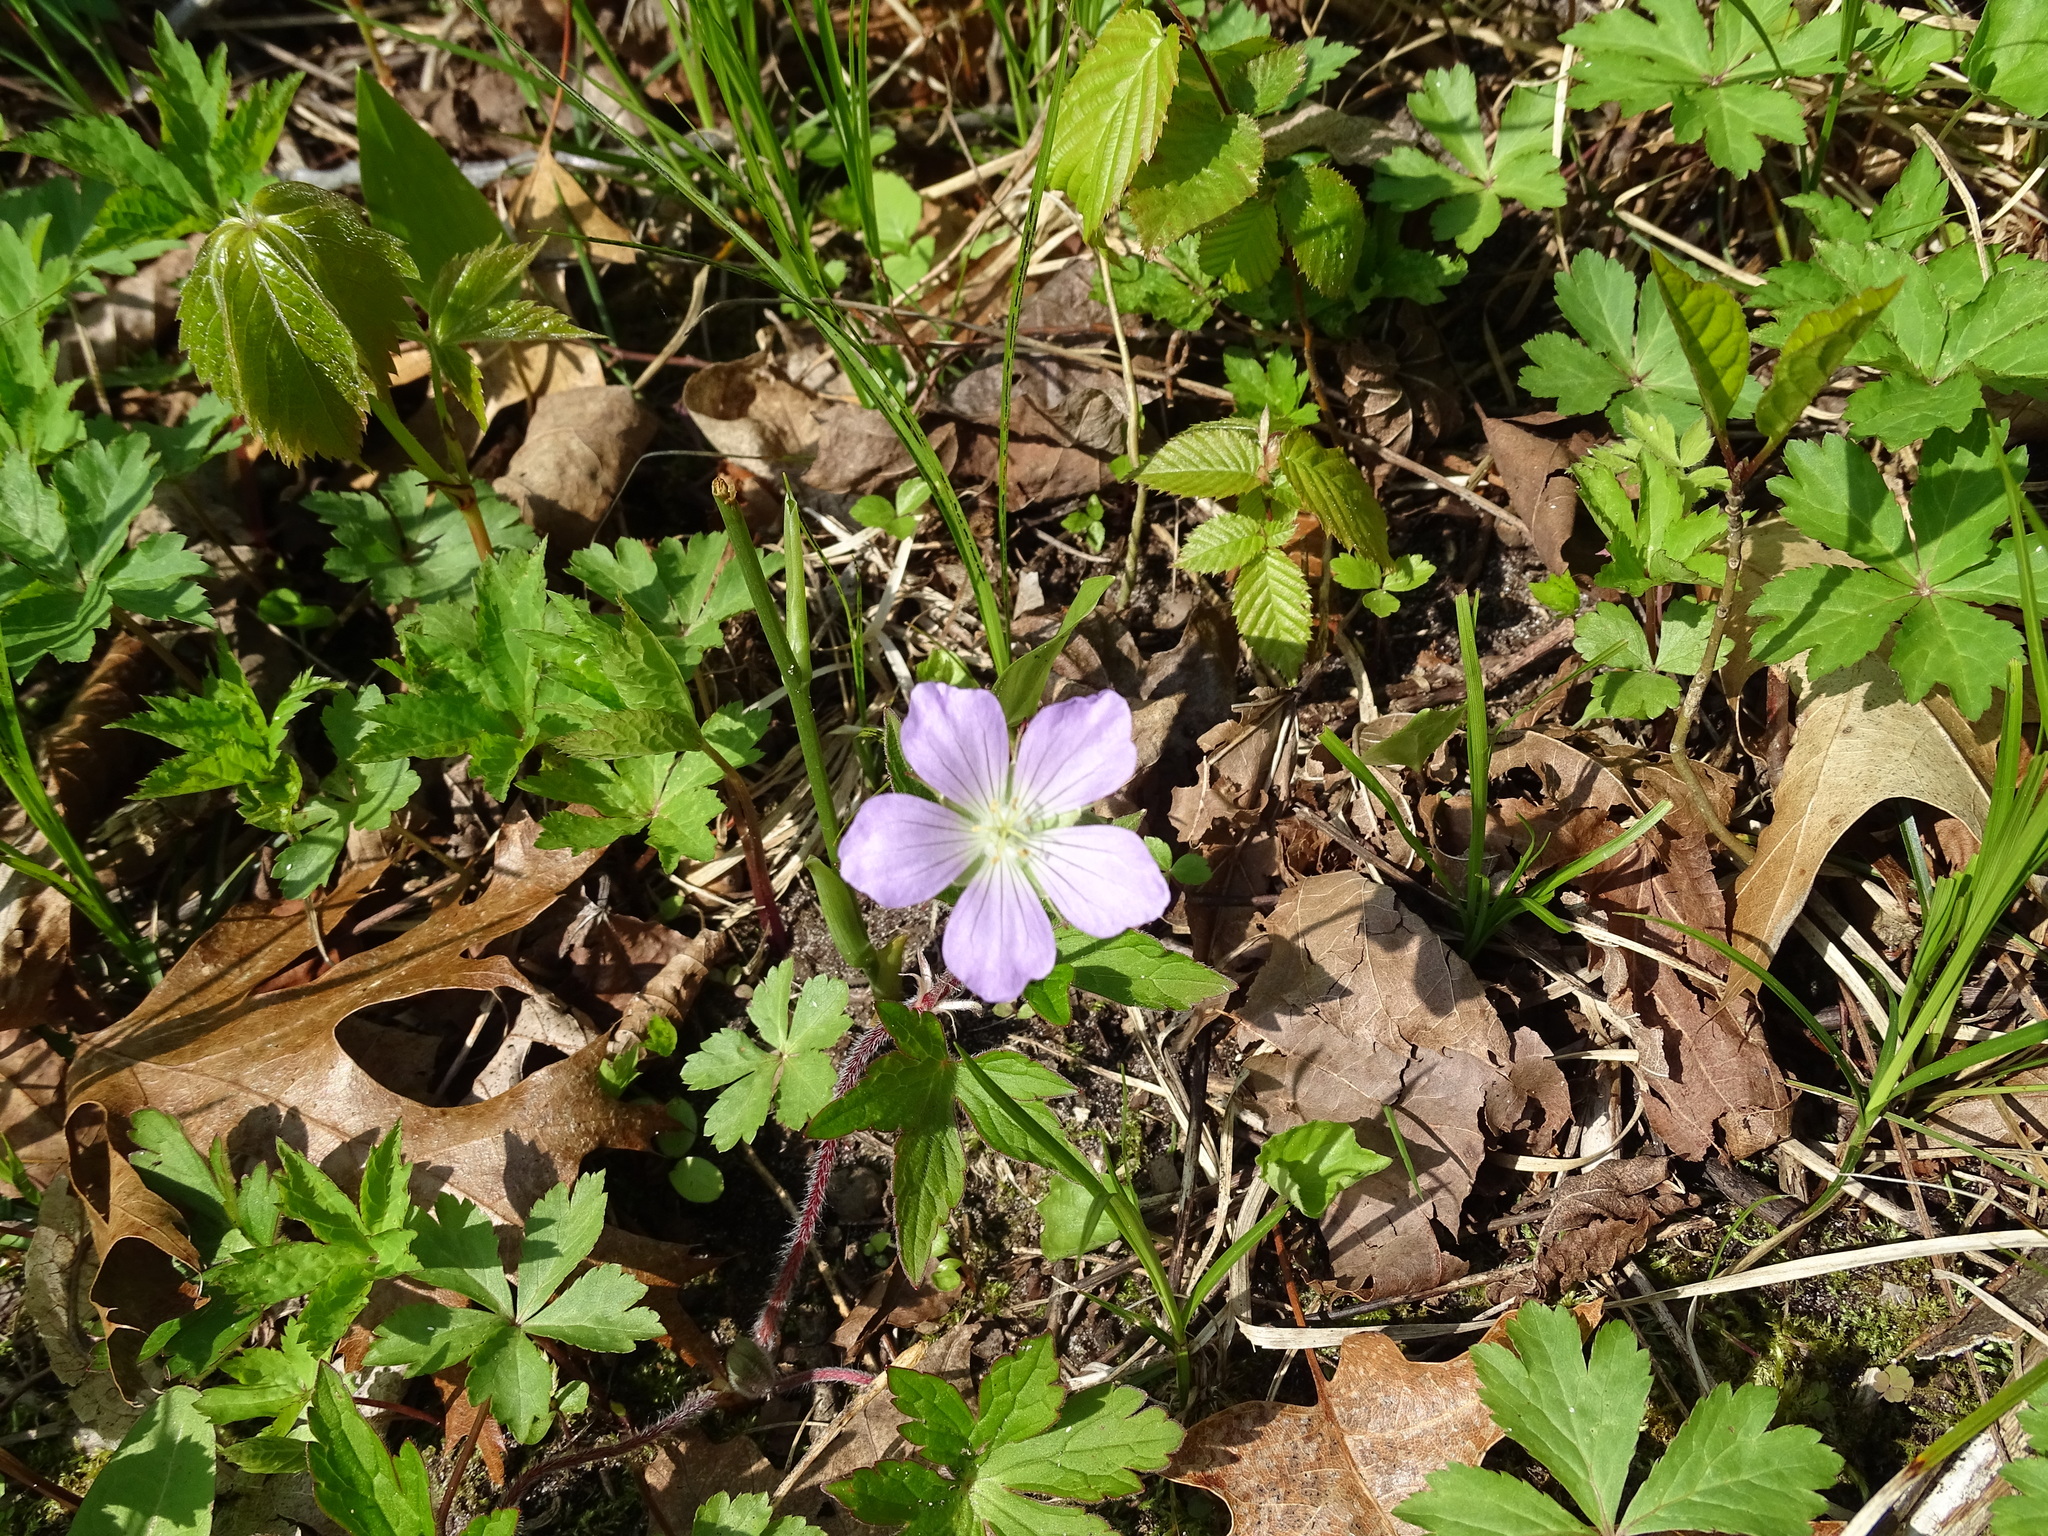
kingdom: Plantae
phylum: Tracheophyta
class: Magnoliopsida
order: Geraniales
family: Geraniaceae
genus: Geranium
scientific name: Geranium maculatum
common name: Spotted geranium
